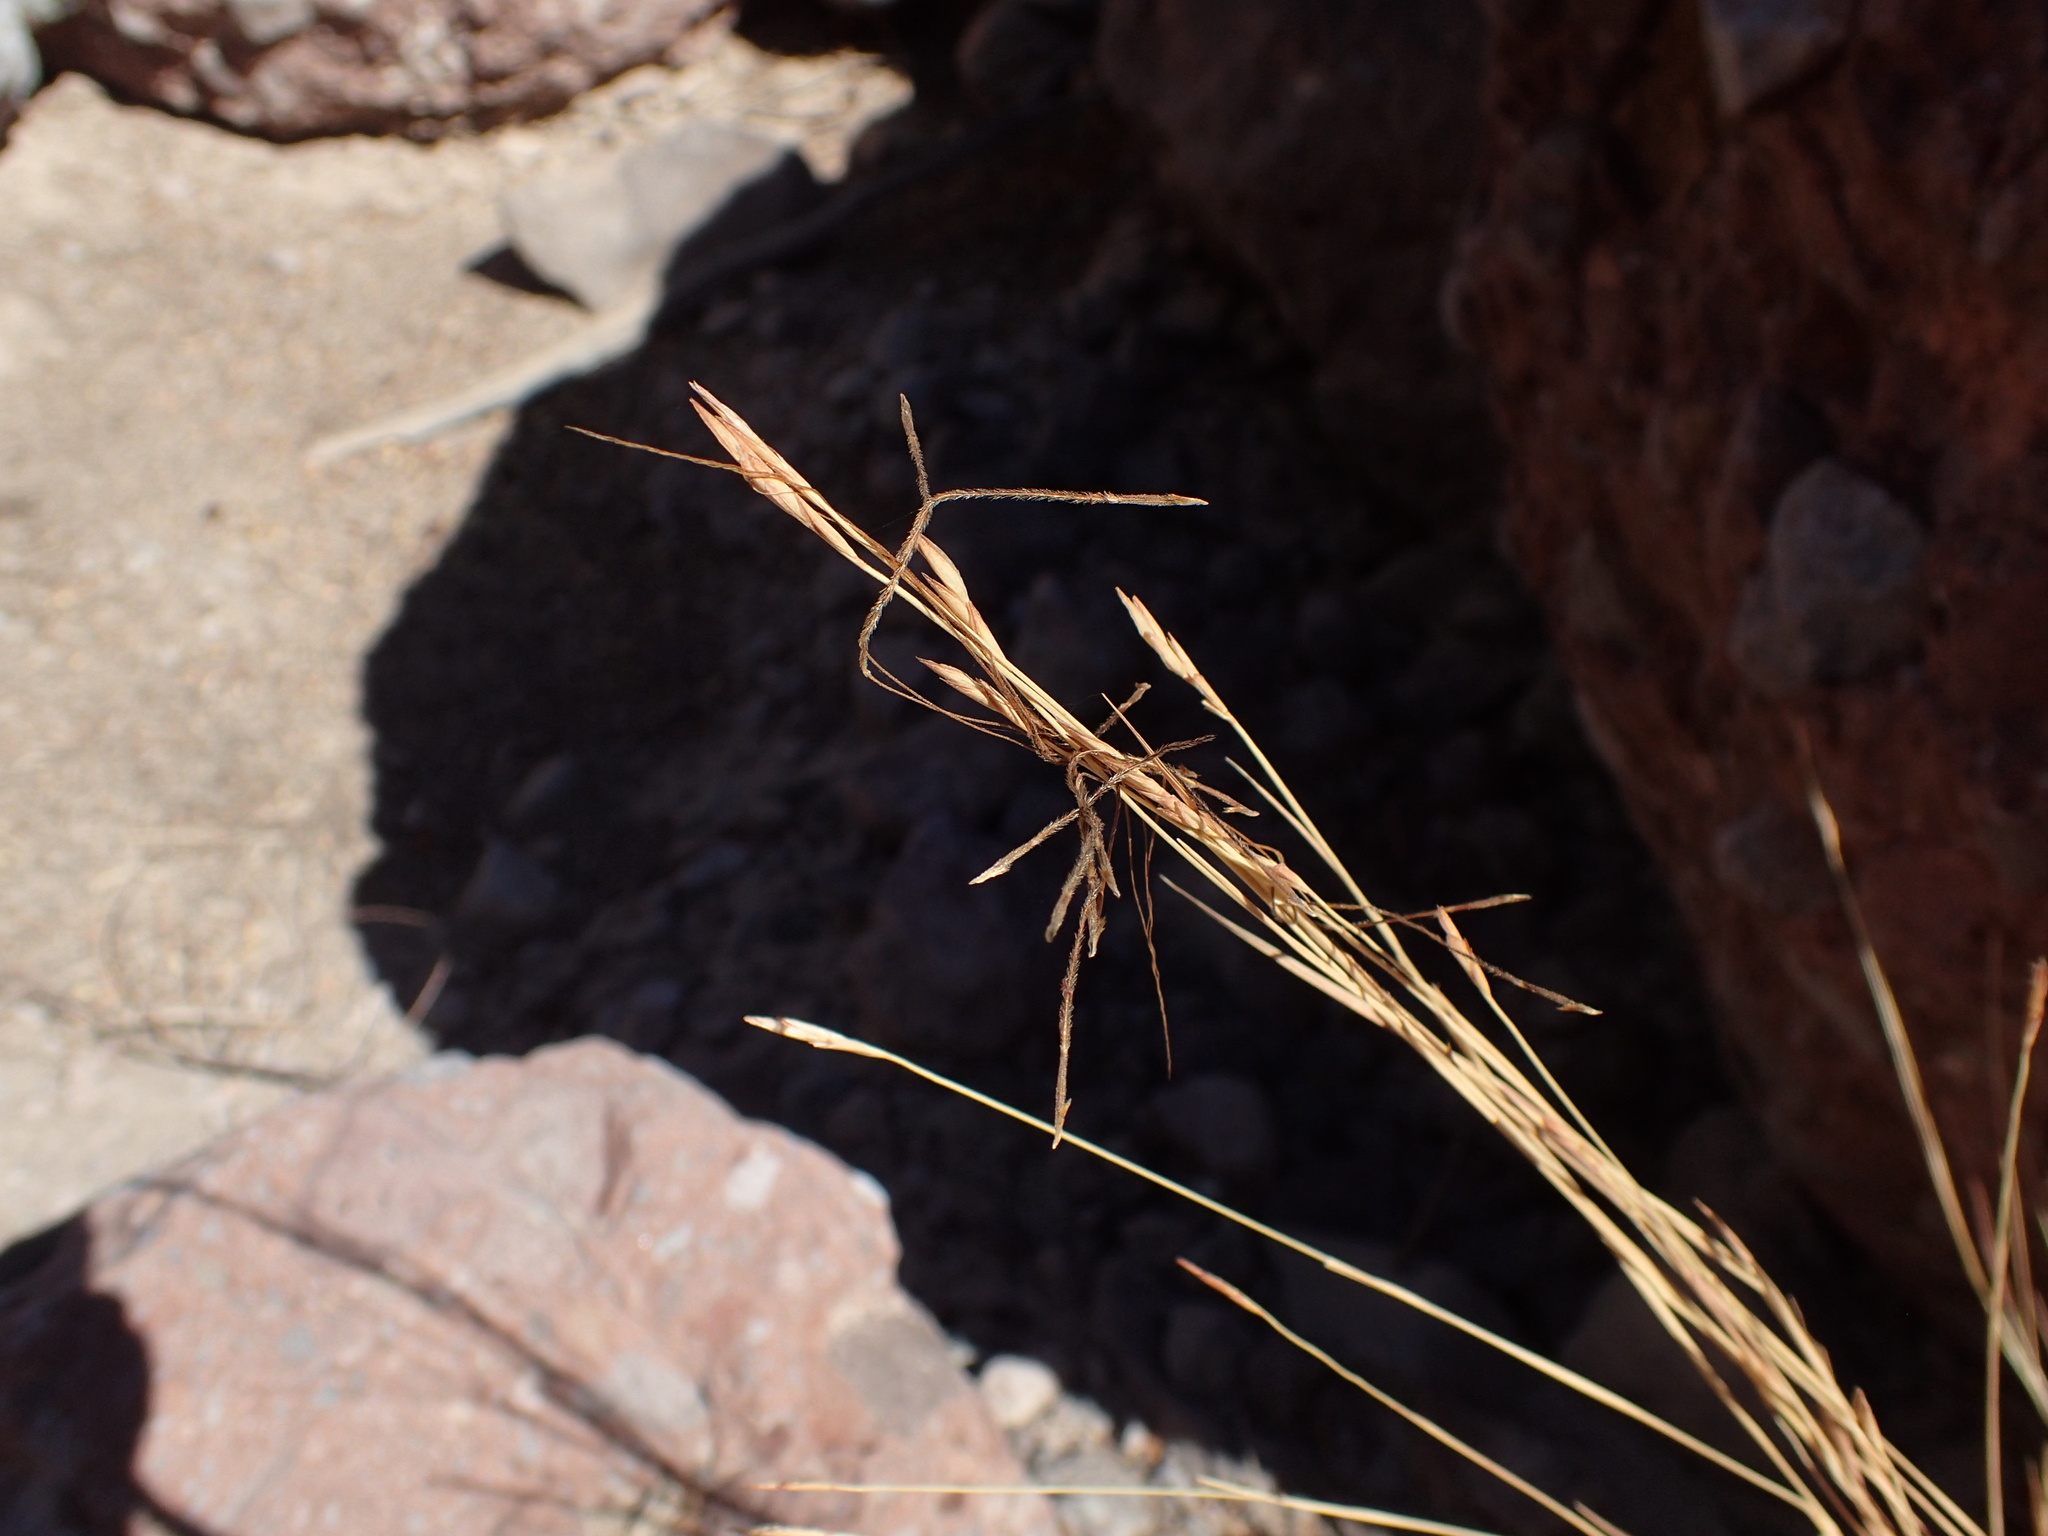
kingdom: Plantae
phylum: Tracheophyta
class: Liliopsida
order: Poales
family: Poaceae
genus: Heteropogon
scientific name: Heteropogon contortus
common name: Tanglehead
